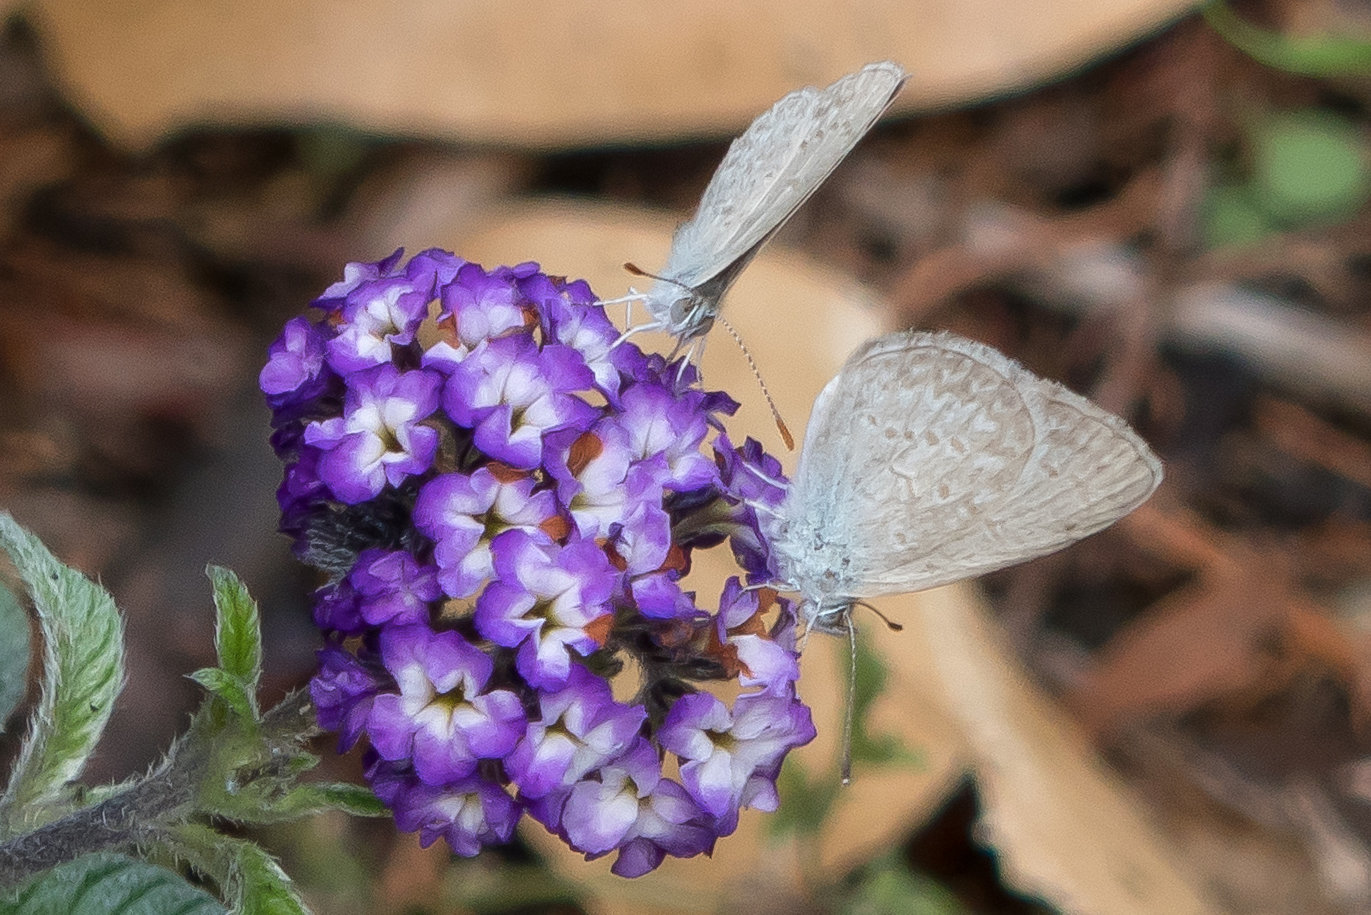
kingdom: Animalia
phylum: Arthropoda
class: Insecta
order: Lepidoptera
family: Lycaenidae
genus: Zizina
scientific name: Zizina otis
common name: Lesser grass blue
